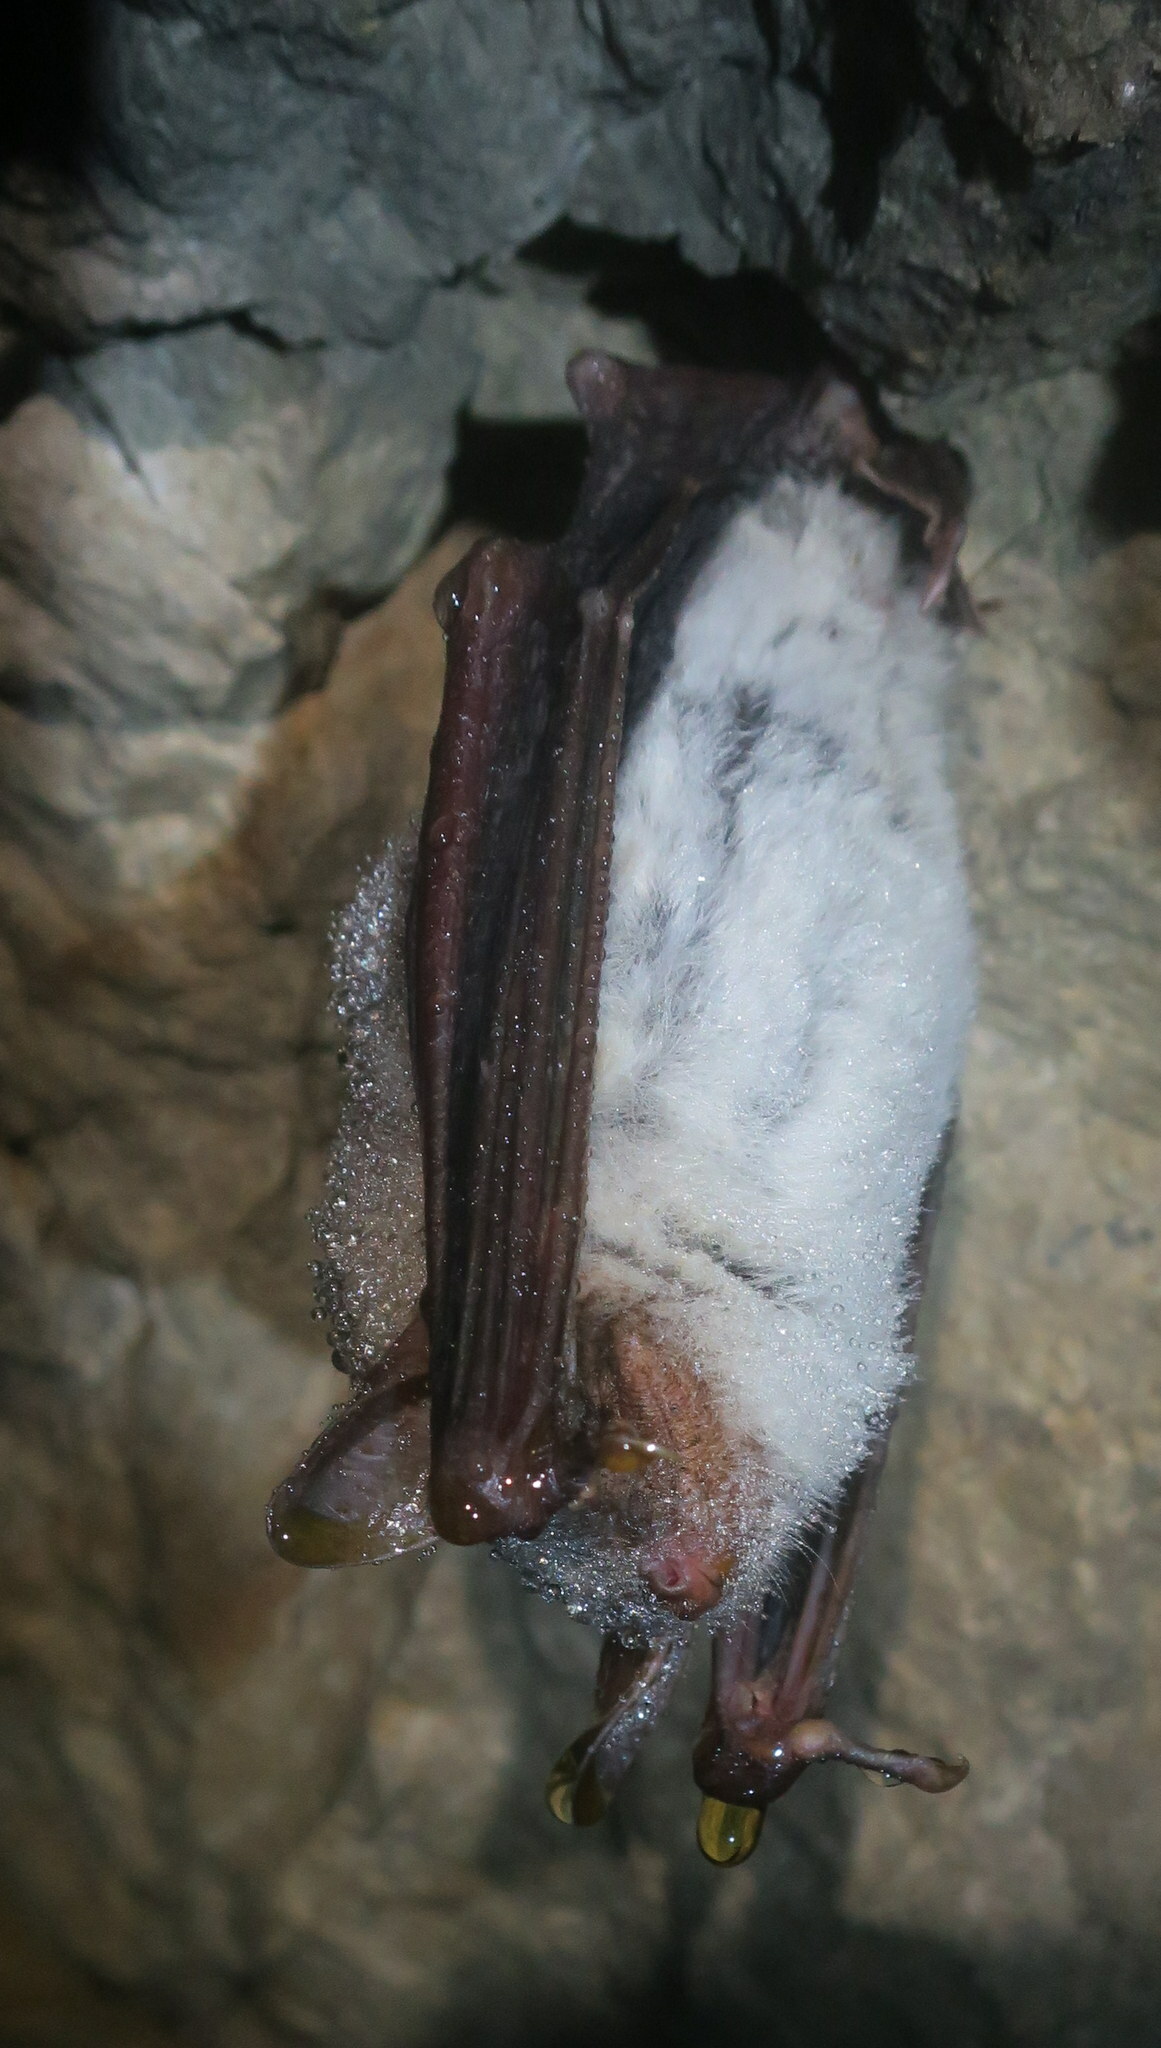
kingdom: Animalia
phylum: Chordata
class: Mammalia
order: Chiroptera
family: Vespertilionidae
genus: Myotis
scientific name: Myotis myotis
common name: Greater mouse-eared bat
